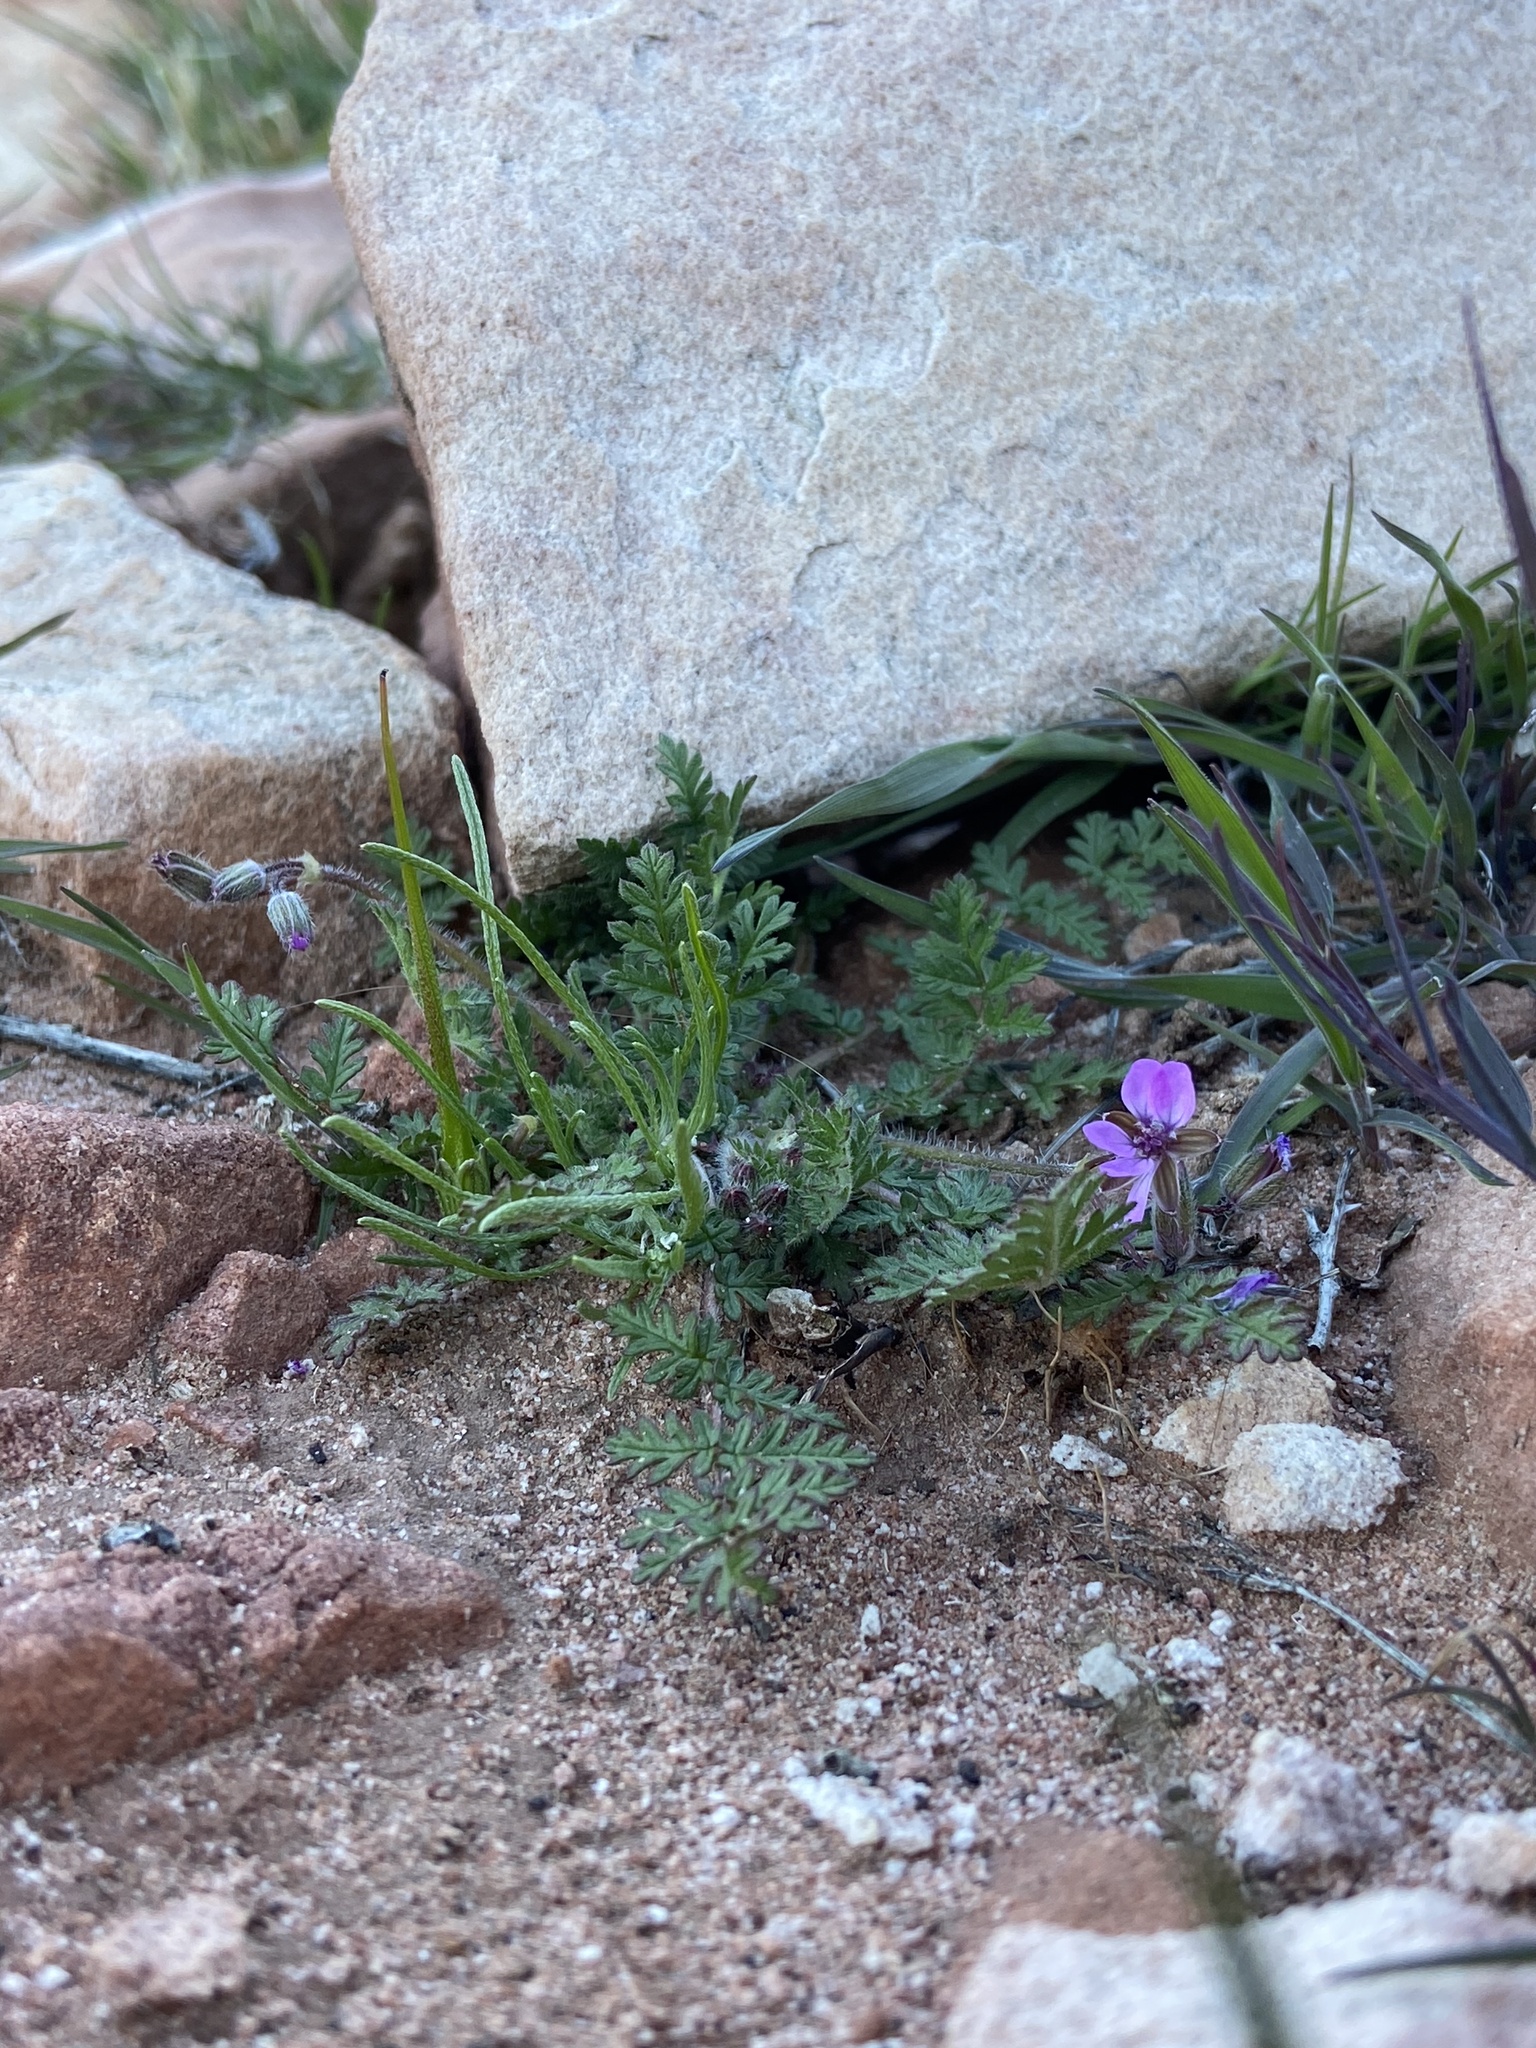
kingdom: Plantae
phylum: Tracheophyta
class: Magnoliopsida
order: Geraniales
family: Geraniaceae
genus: Erodium
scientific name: Erodium cicutarium
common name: Common stork's-bill
